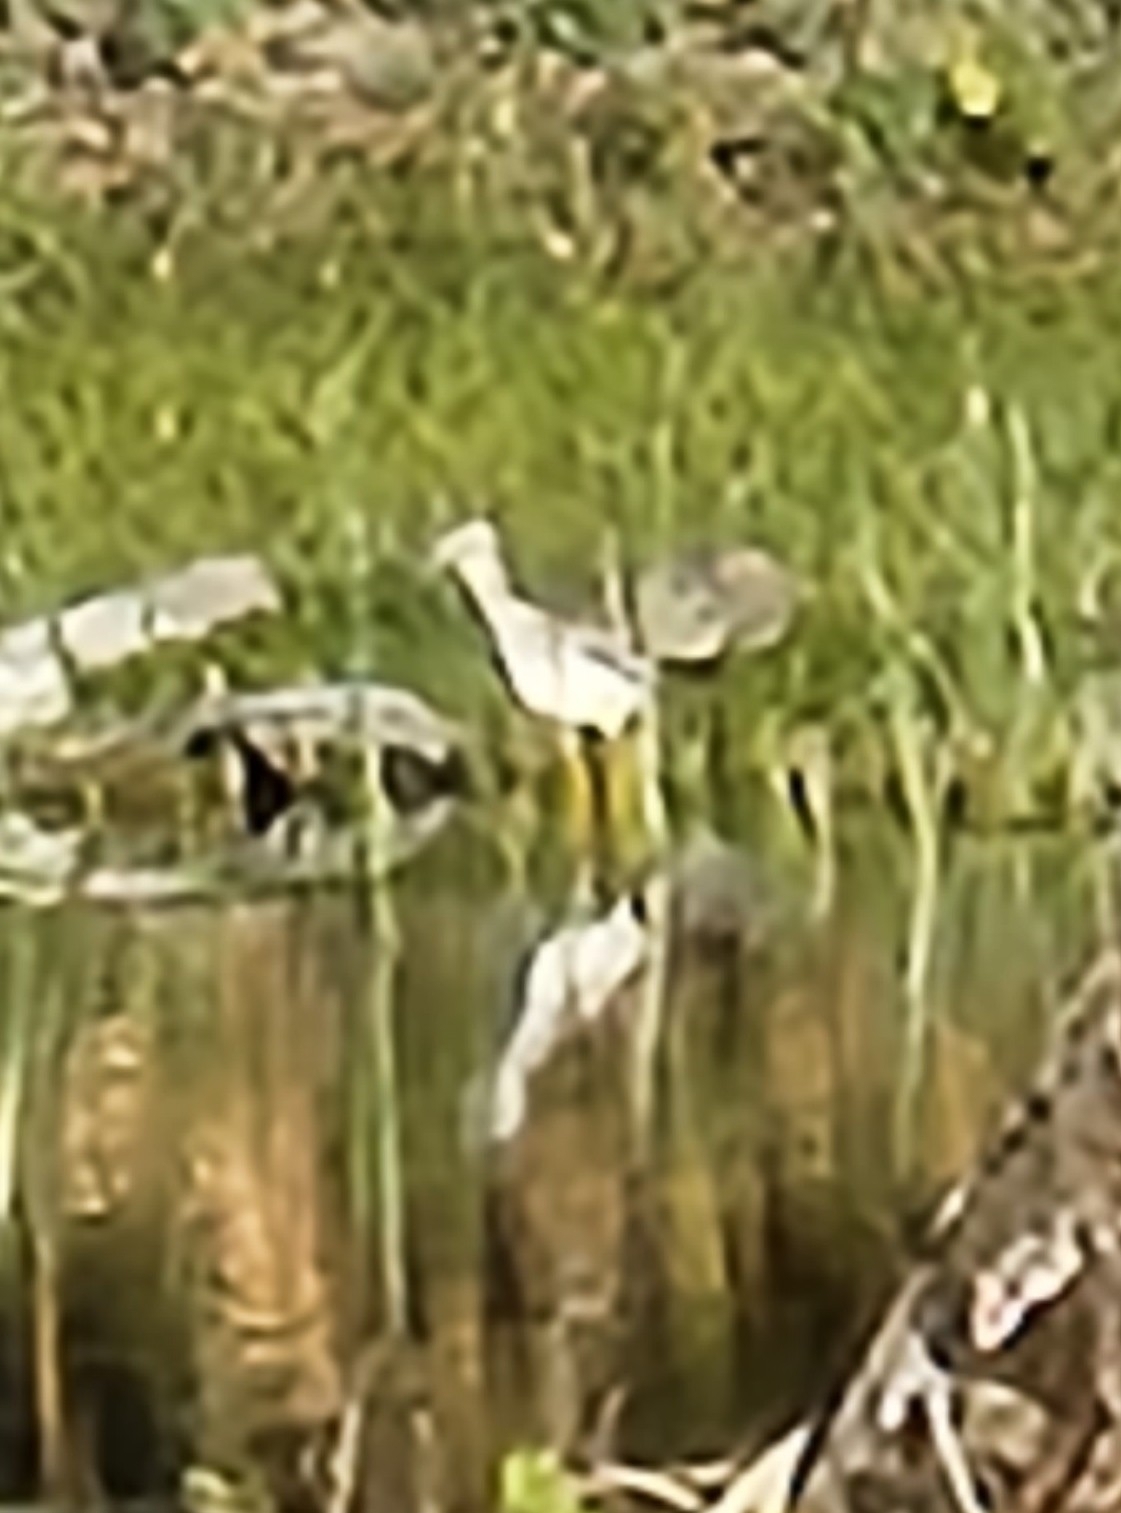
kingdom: Animalia
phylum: Chordata
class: Aves
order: Charadriiformes
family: Scolopacidae
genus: Tringa
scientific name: Tringa melanoleuca
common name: Greater yellowlegs
